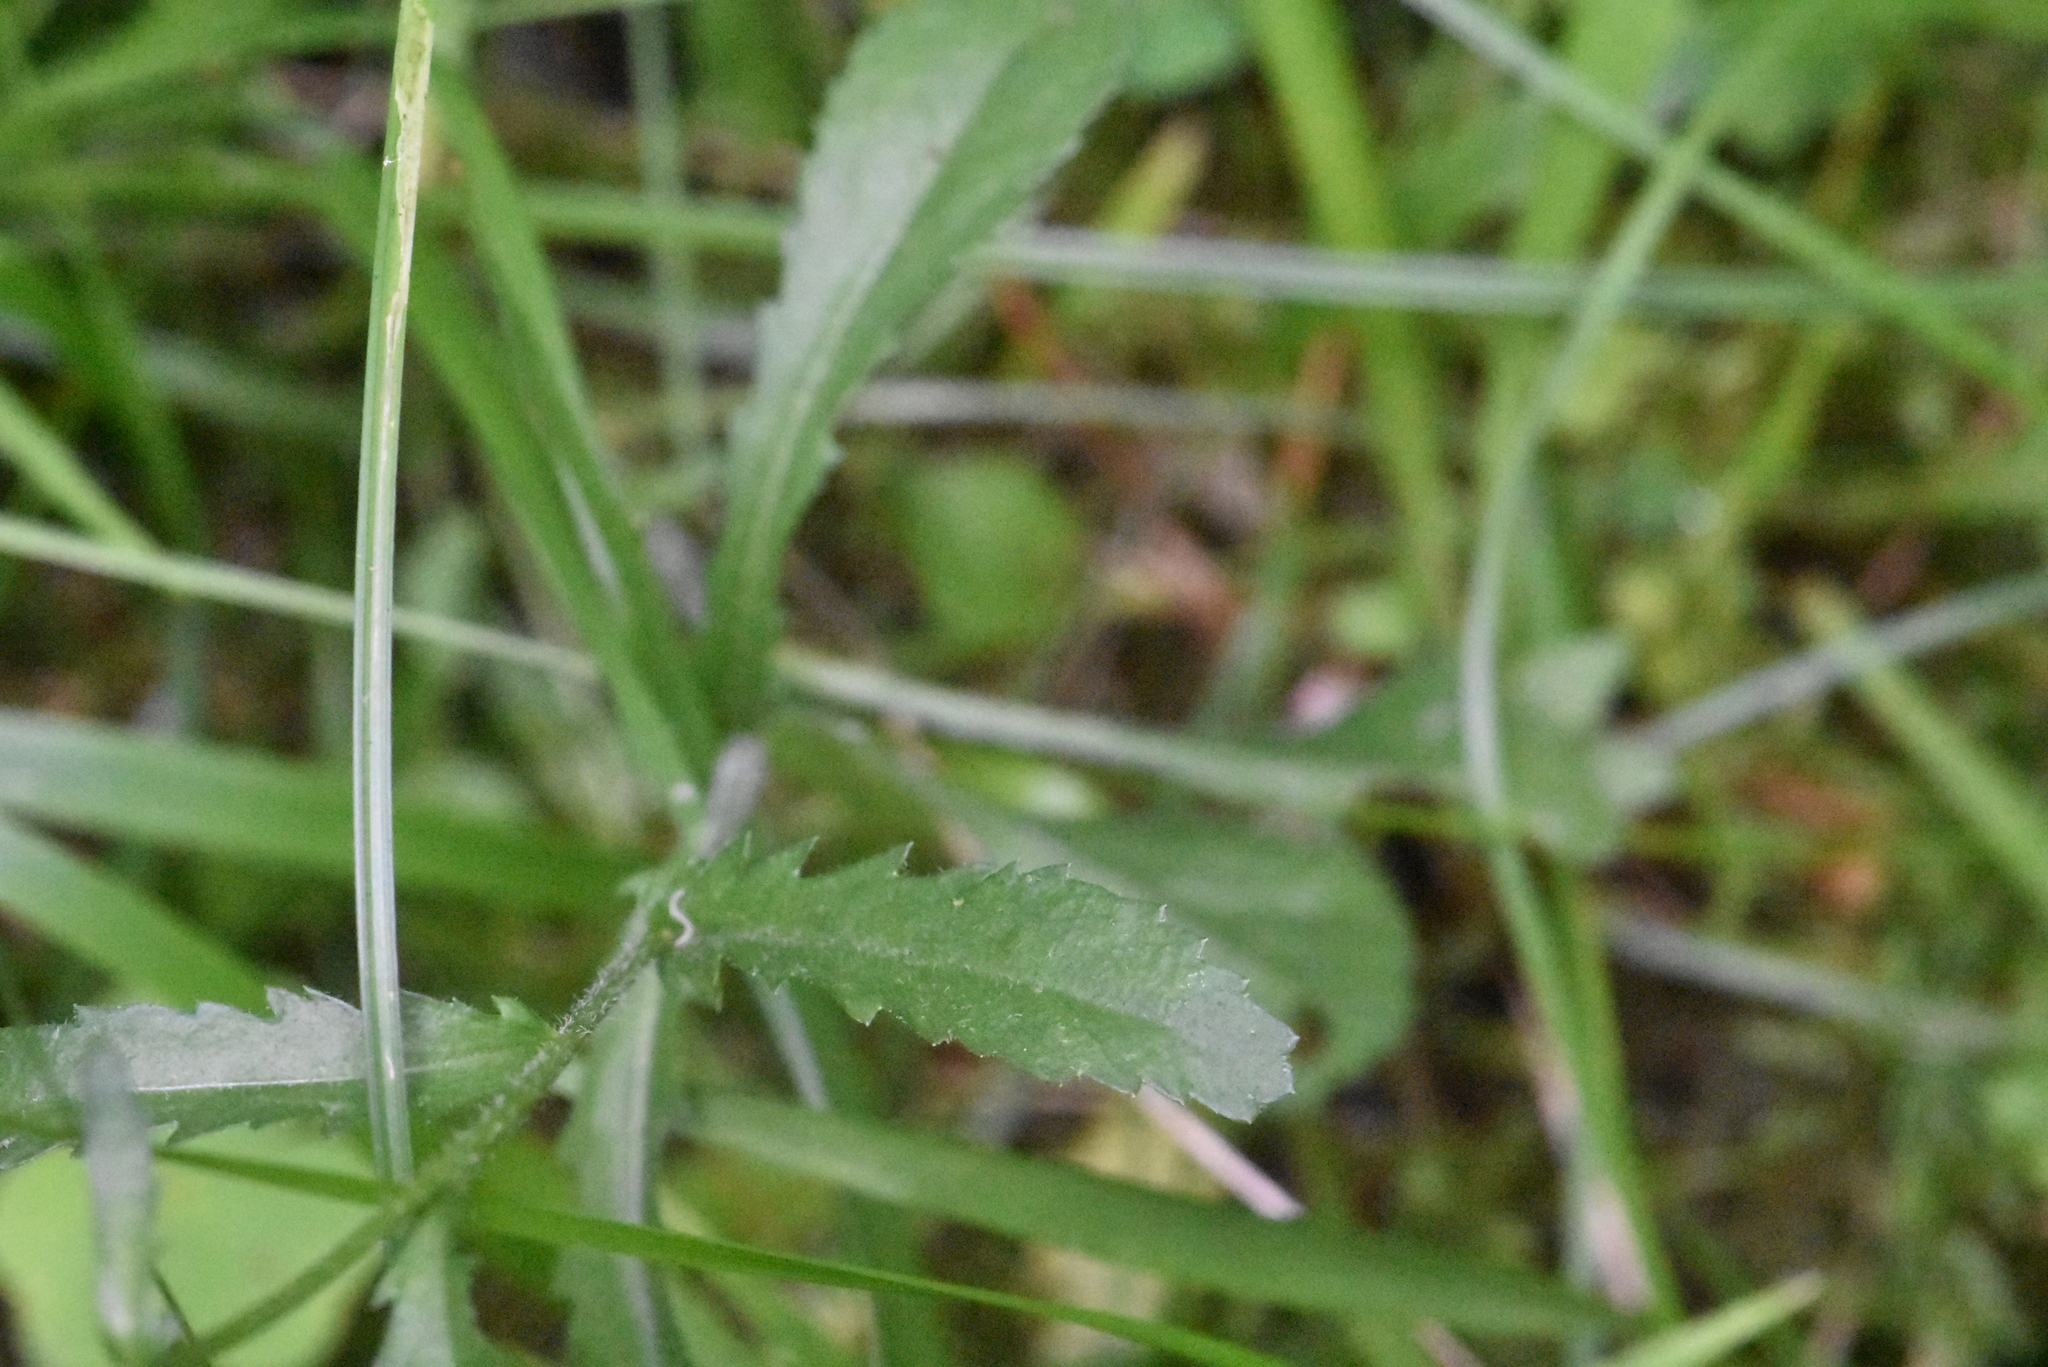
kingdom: Plantae
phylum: Tracheophyta
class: Magnoliopsida
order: Asterales
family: Asteraceae
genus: Leucanthemum
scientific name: Leucanthemum vulgare
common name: Oxeye daisy
